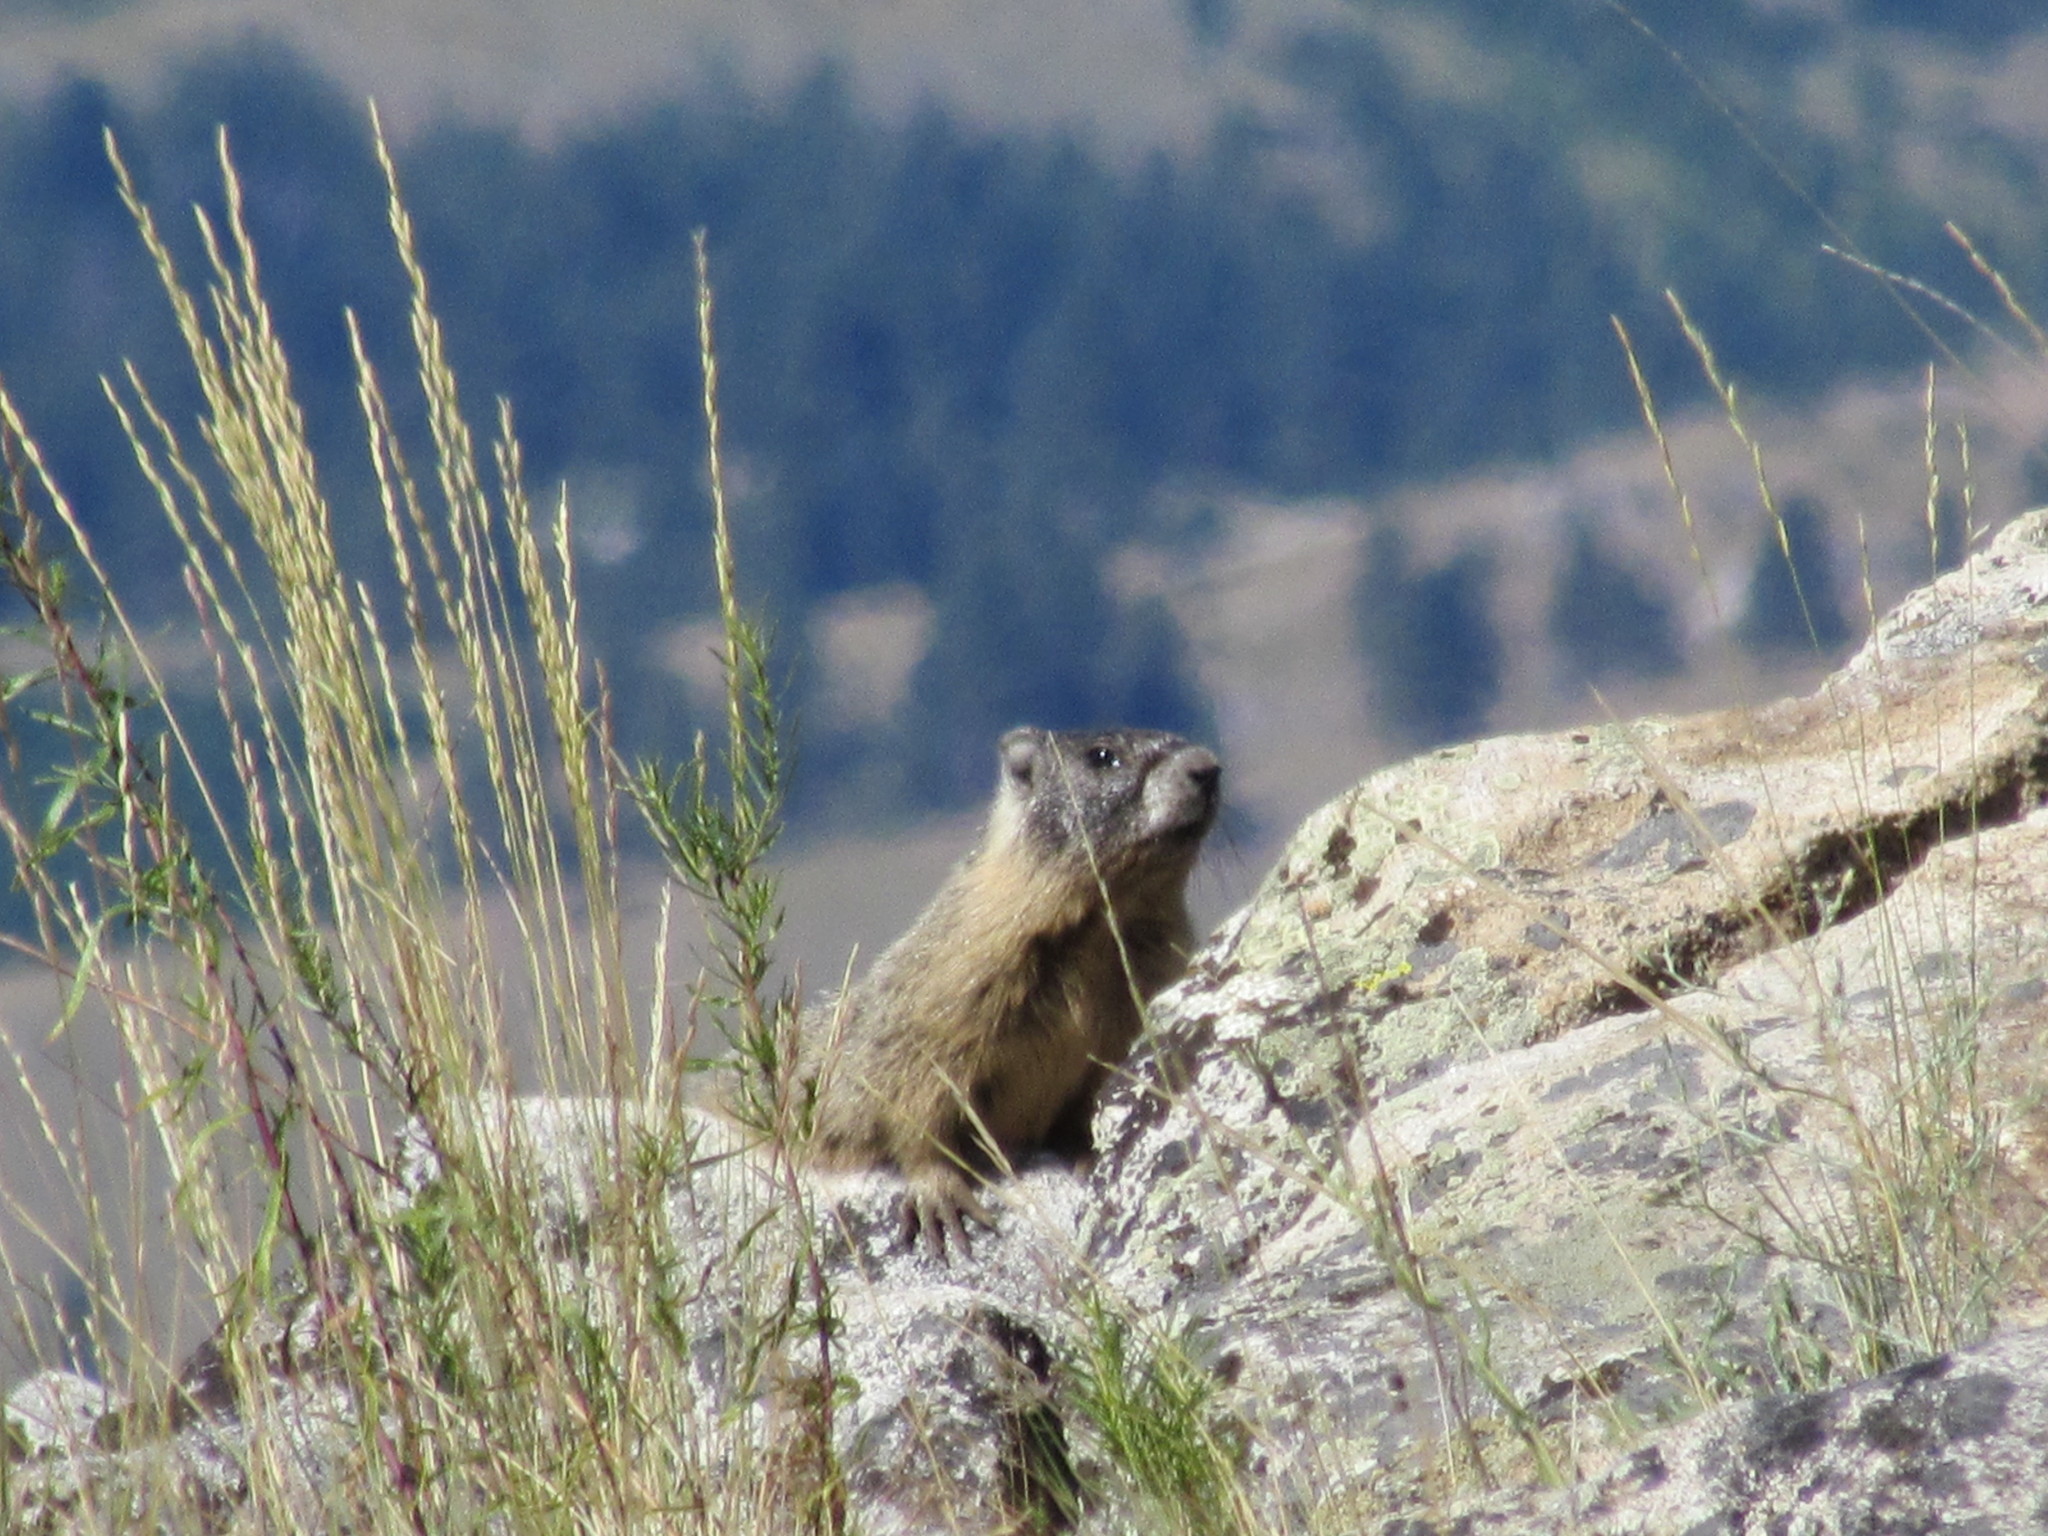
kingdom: Animalia
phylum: Chordata
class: Mammalia
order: Rodentia
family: Sciuridae
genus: Marmota
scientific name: Marmota flaviventris
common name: Yellow-bellied marmot
